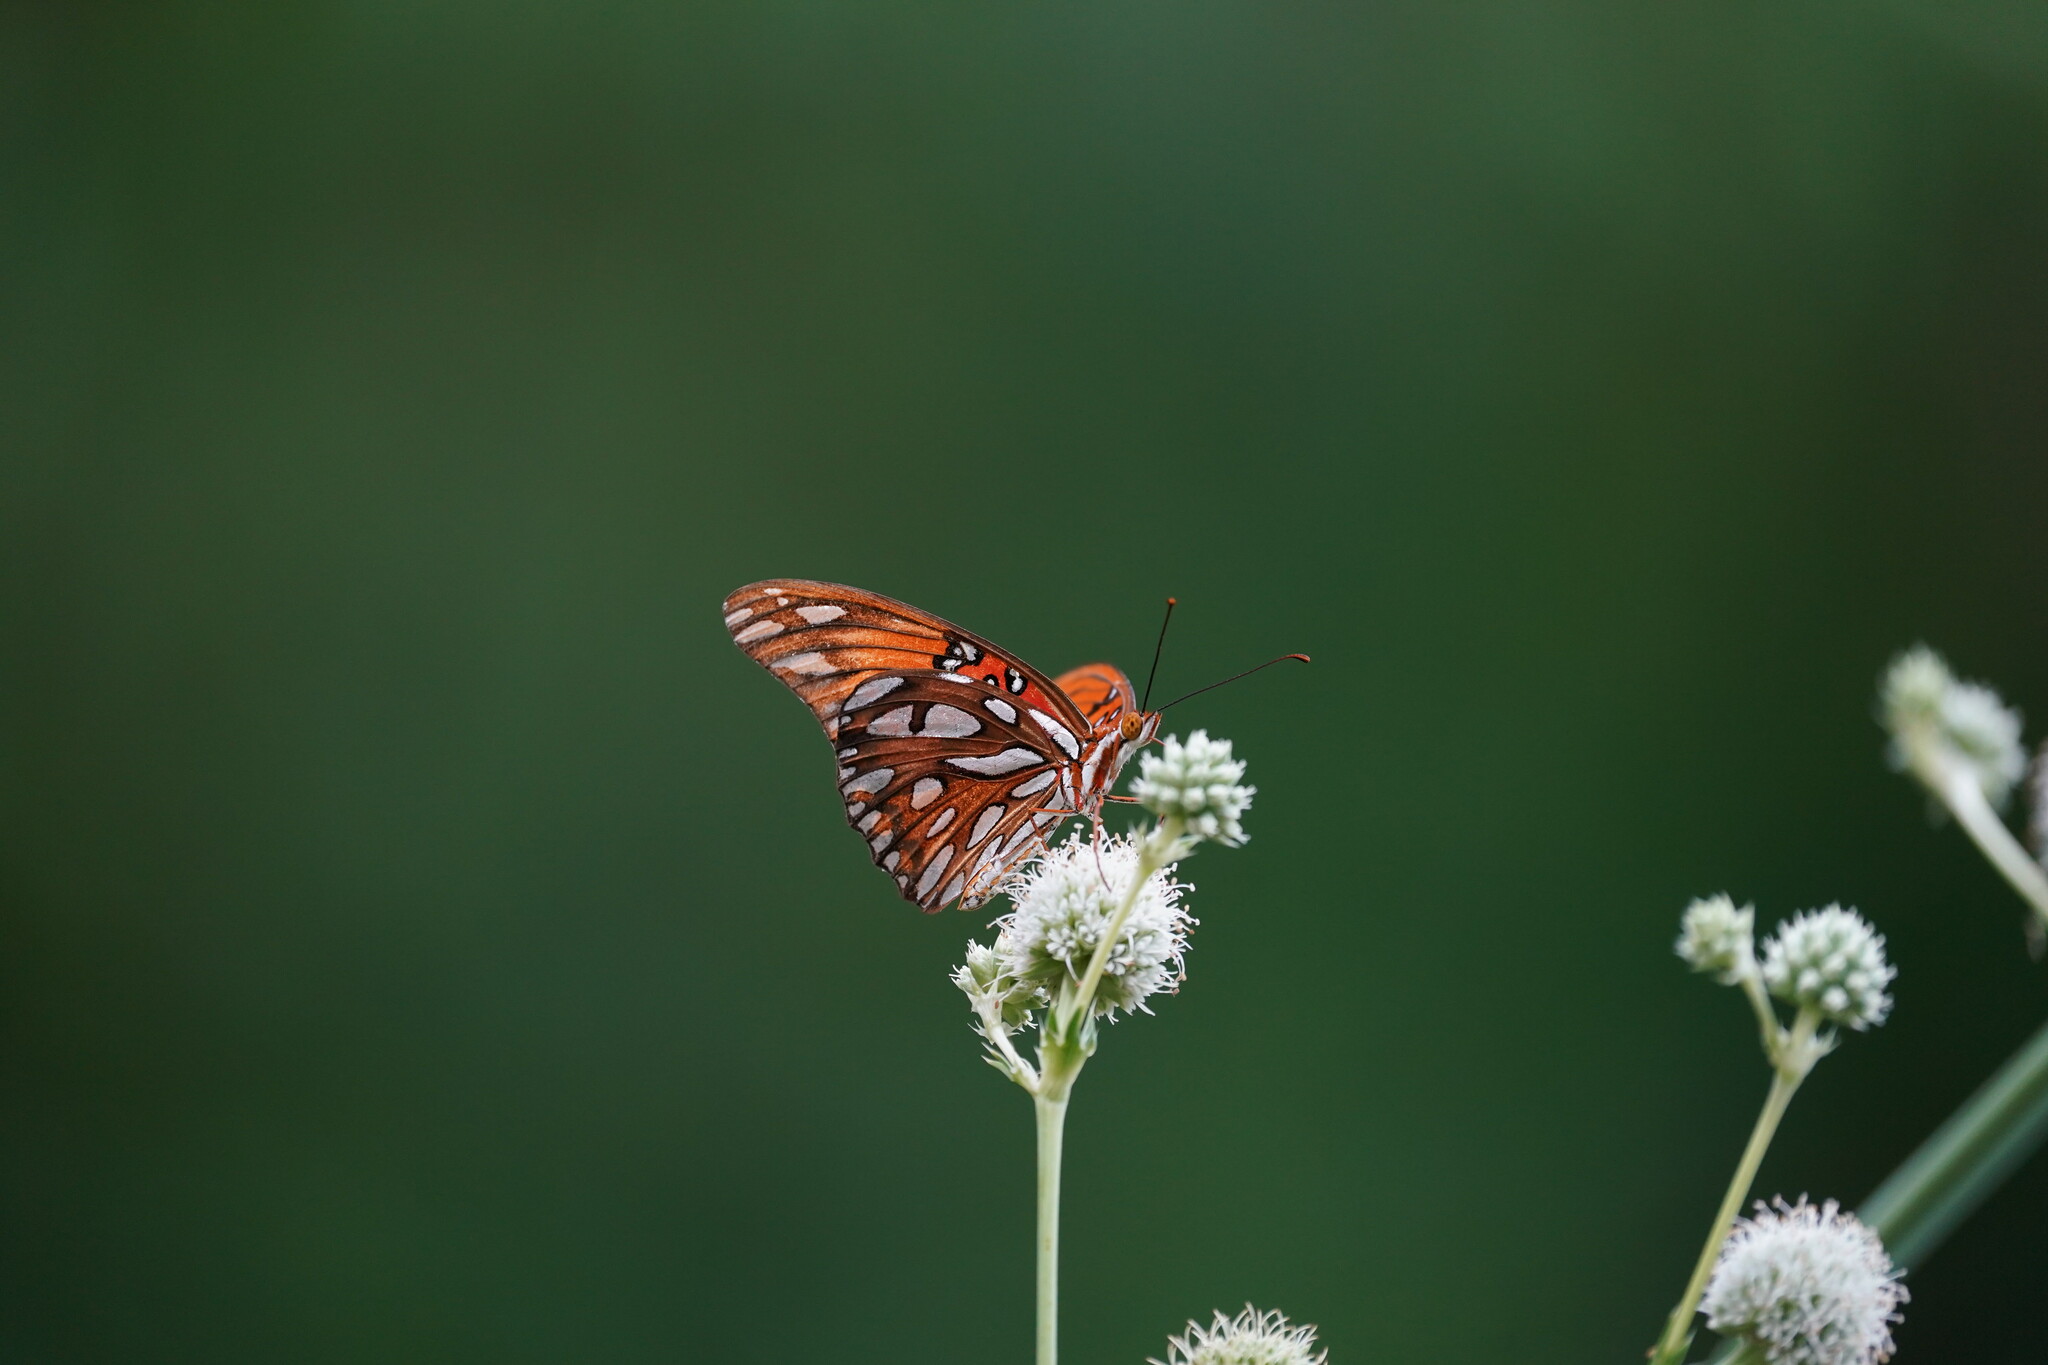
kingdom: Animalia
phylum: Arthropoda
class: Insecta
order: Lepidoptera
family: Nymphalidae
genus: Dione
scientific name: Dione vanillae
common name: Gulf fritillary
